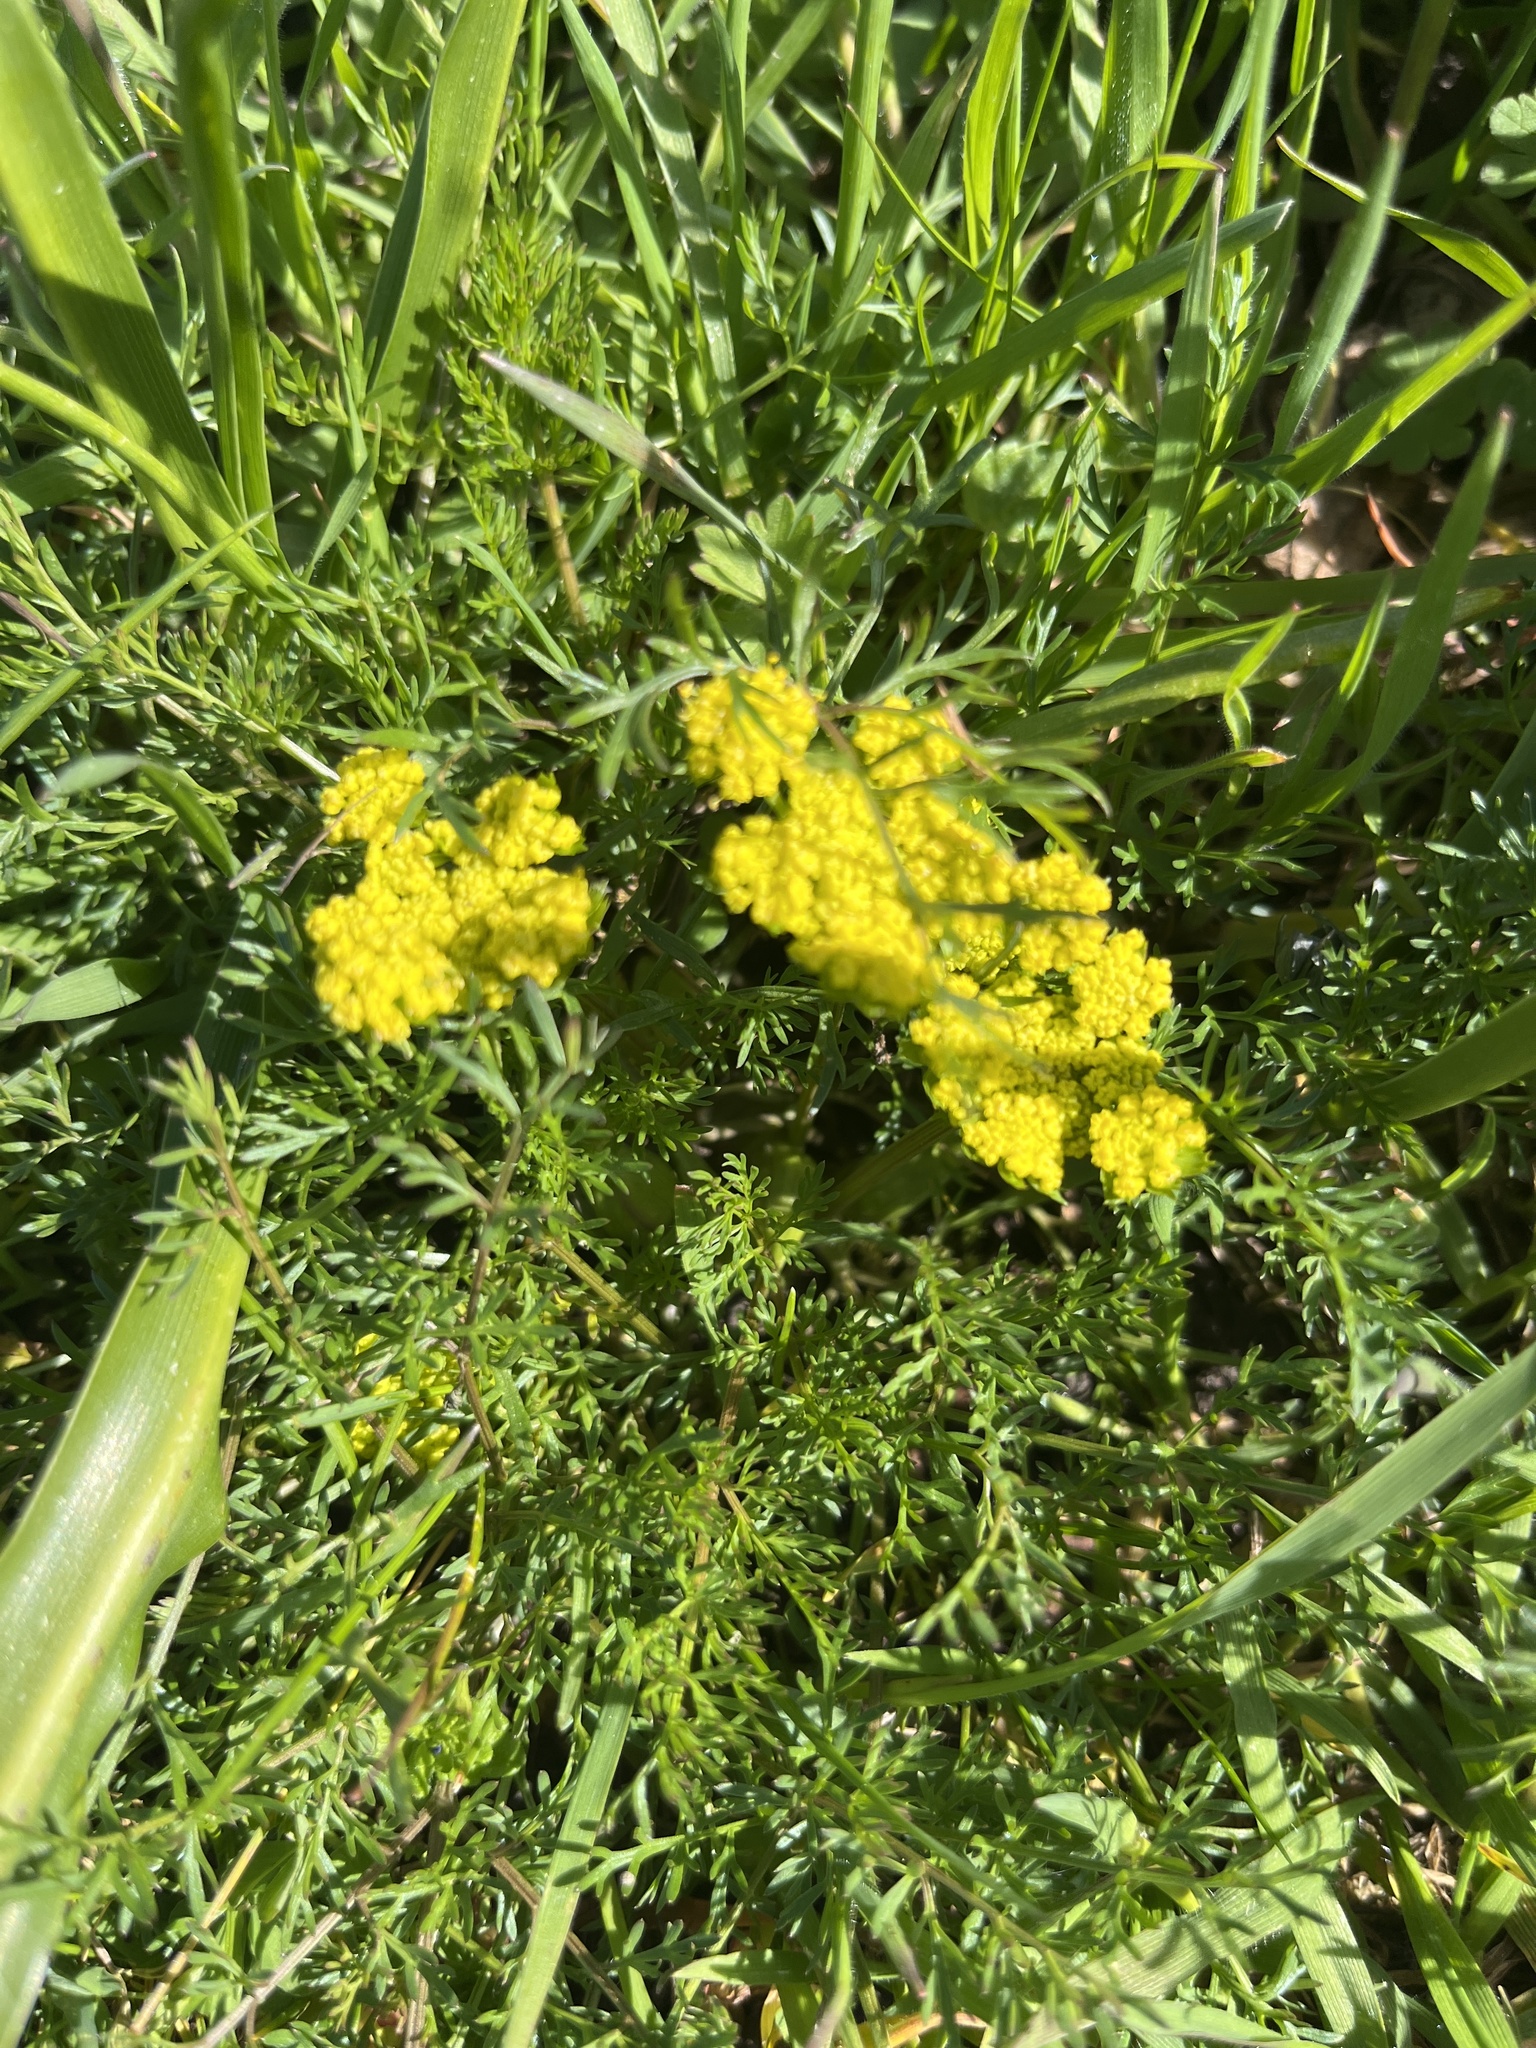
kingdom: Plantae
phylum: Tracheophyta
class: Magnoliopsida
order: Apiales
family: Apiaceae
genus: Lomatium
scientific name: Lomatium utriculatum
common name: Fine-leaf desert-parsley
